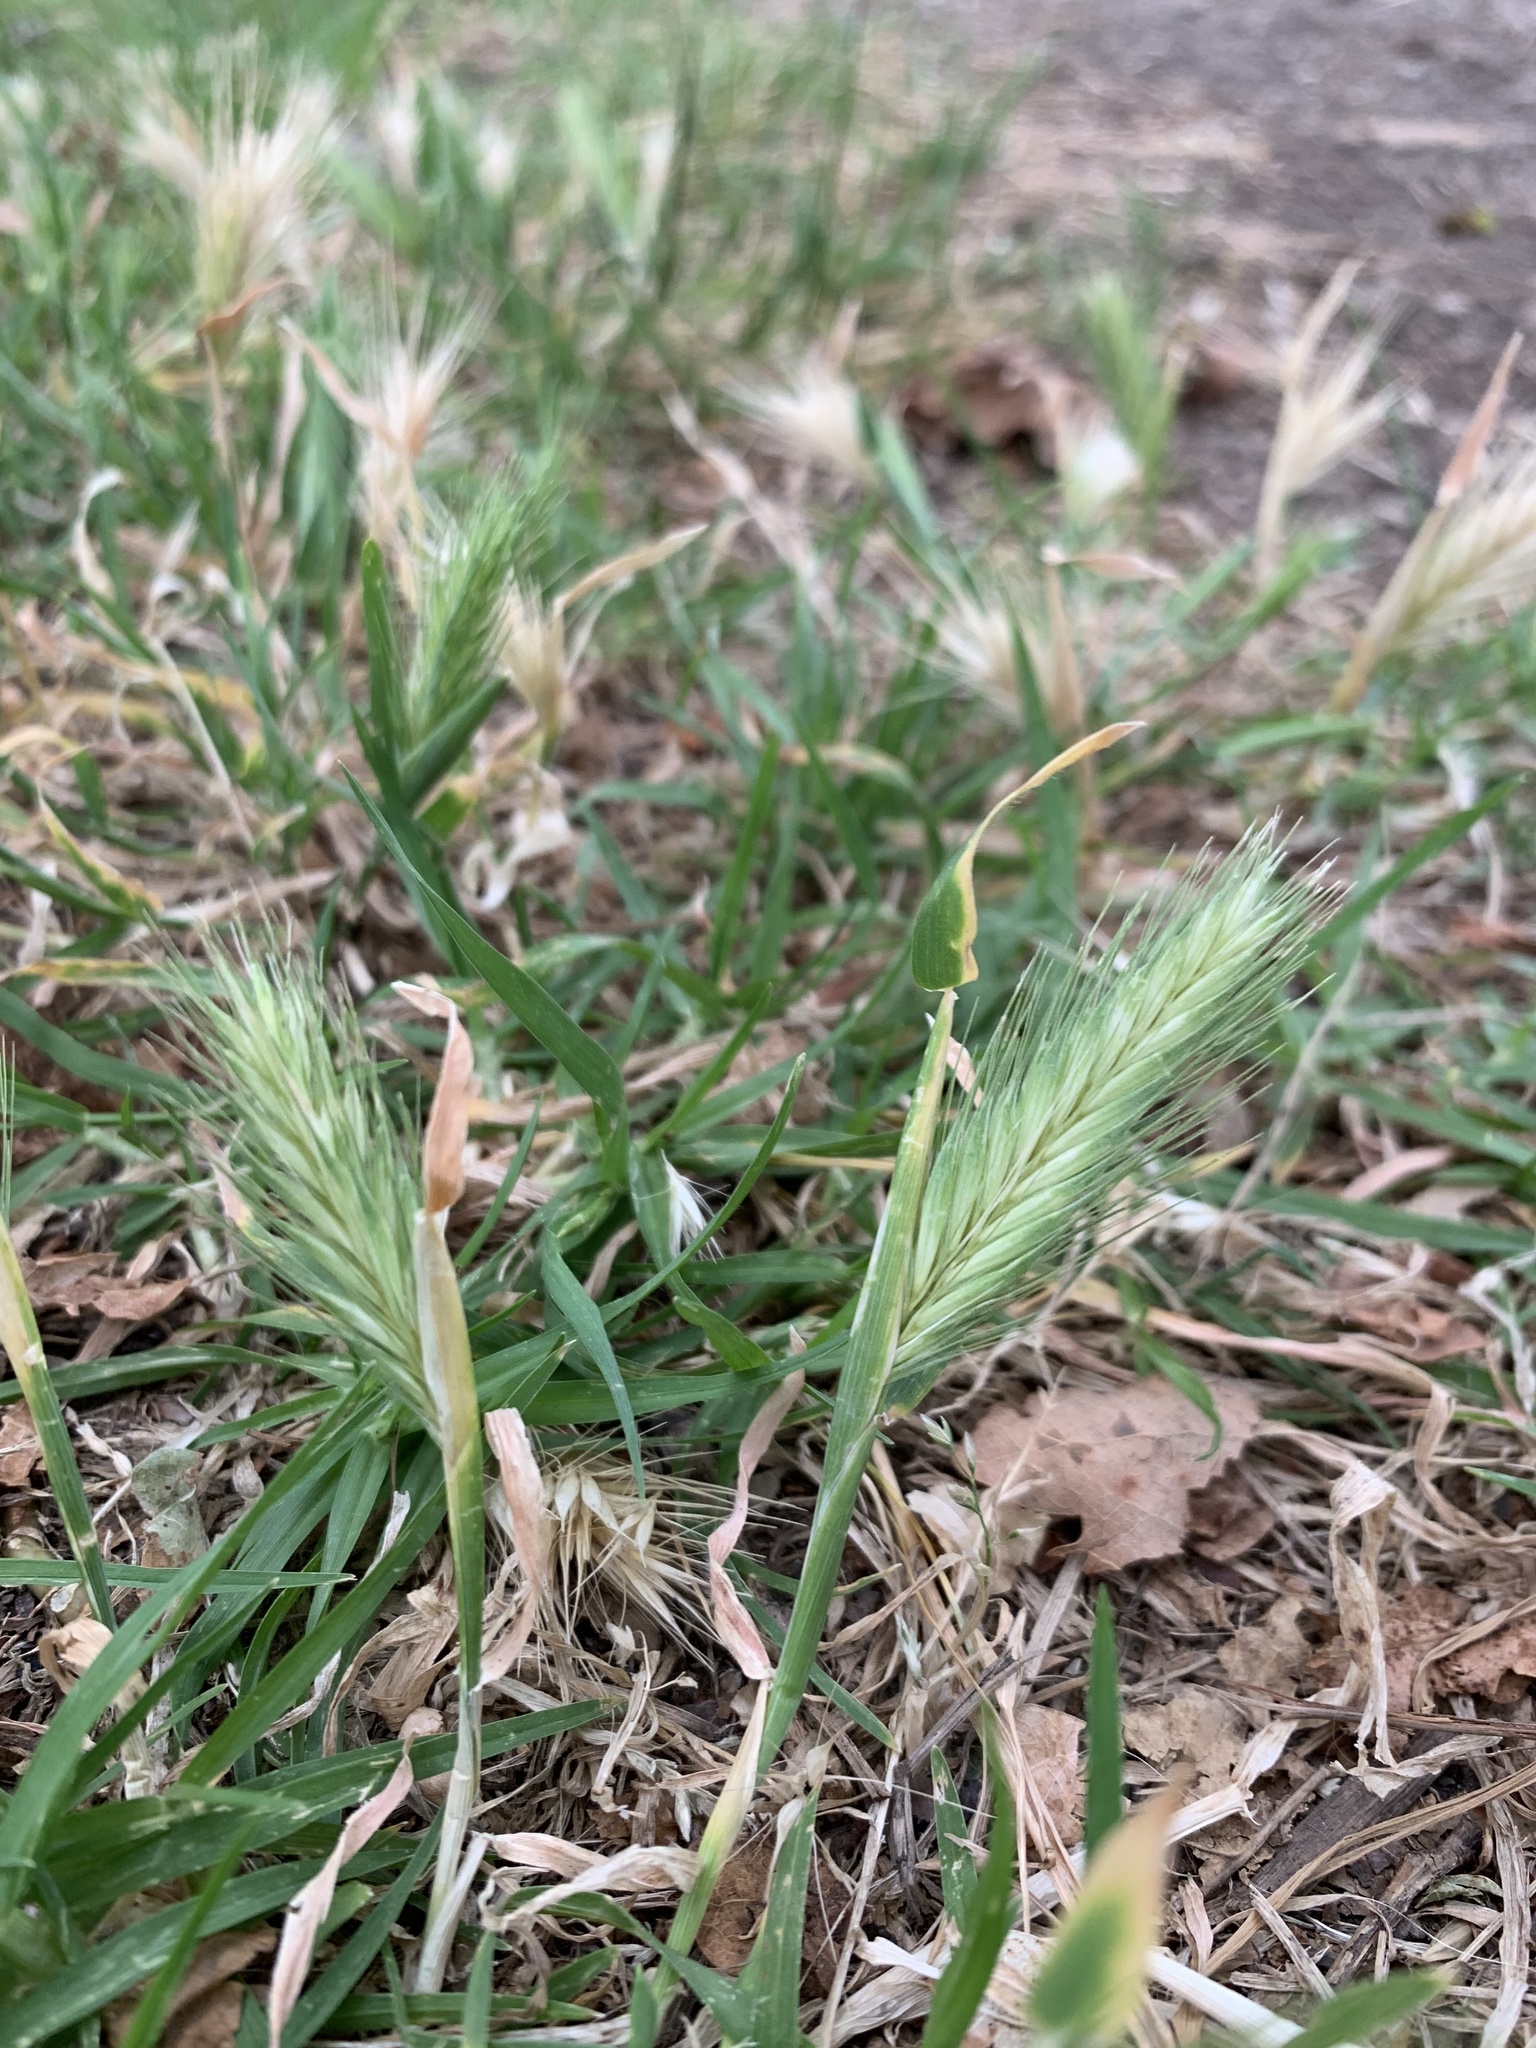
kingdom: Plantae
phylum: Tracheophyta
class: Liliopsida
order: Poales
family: Poaceae
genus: Hordeum
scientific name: Hordeum murinum
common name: Wall barley
